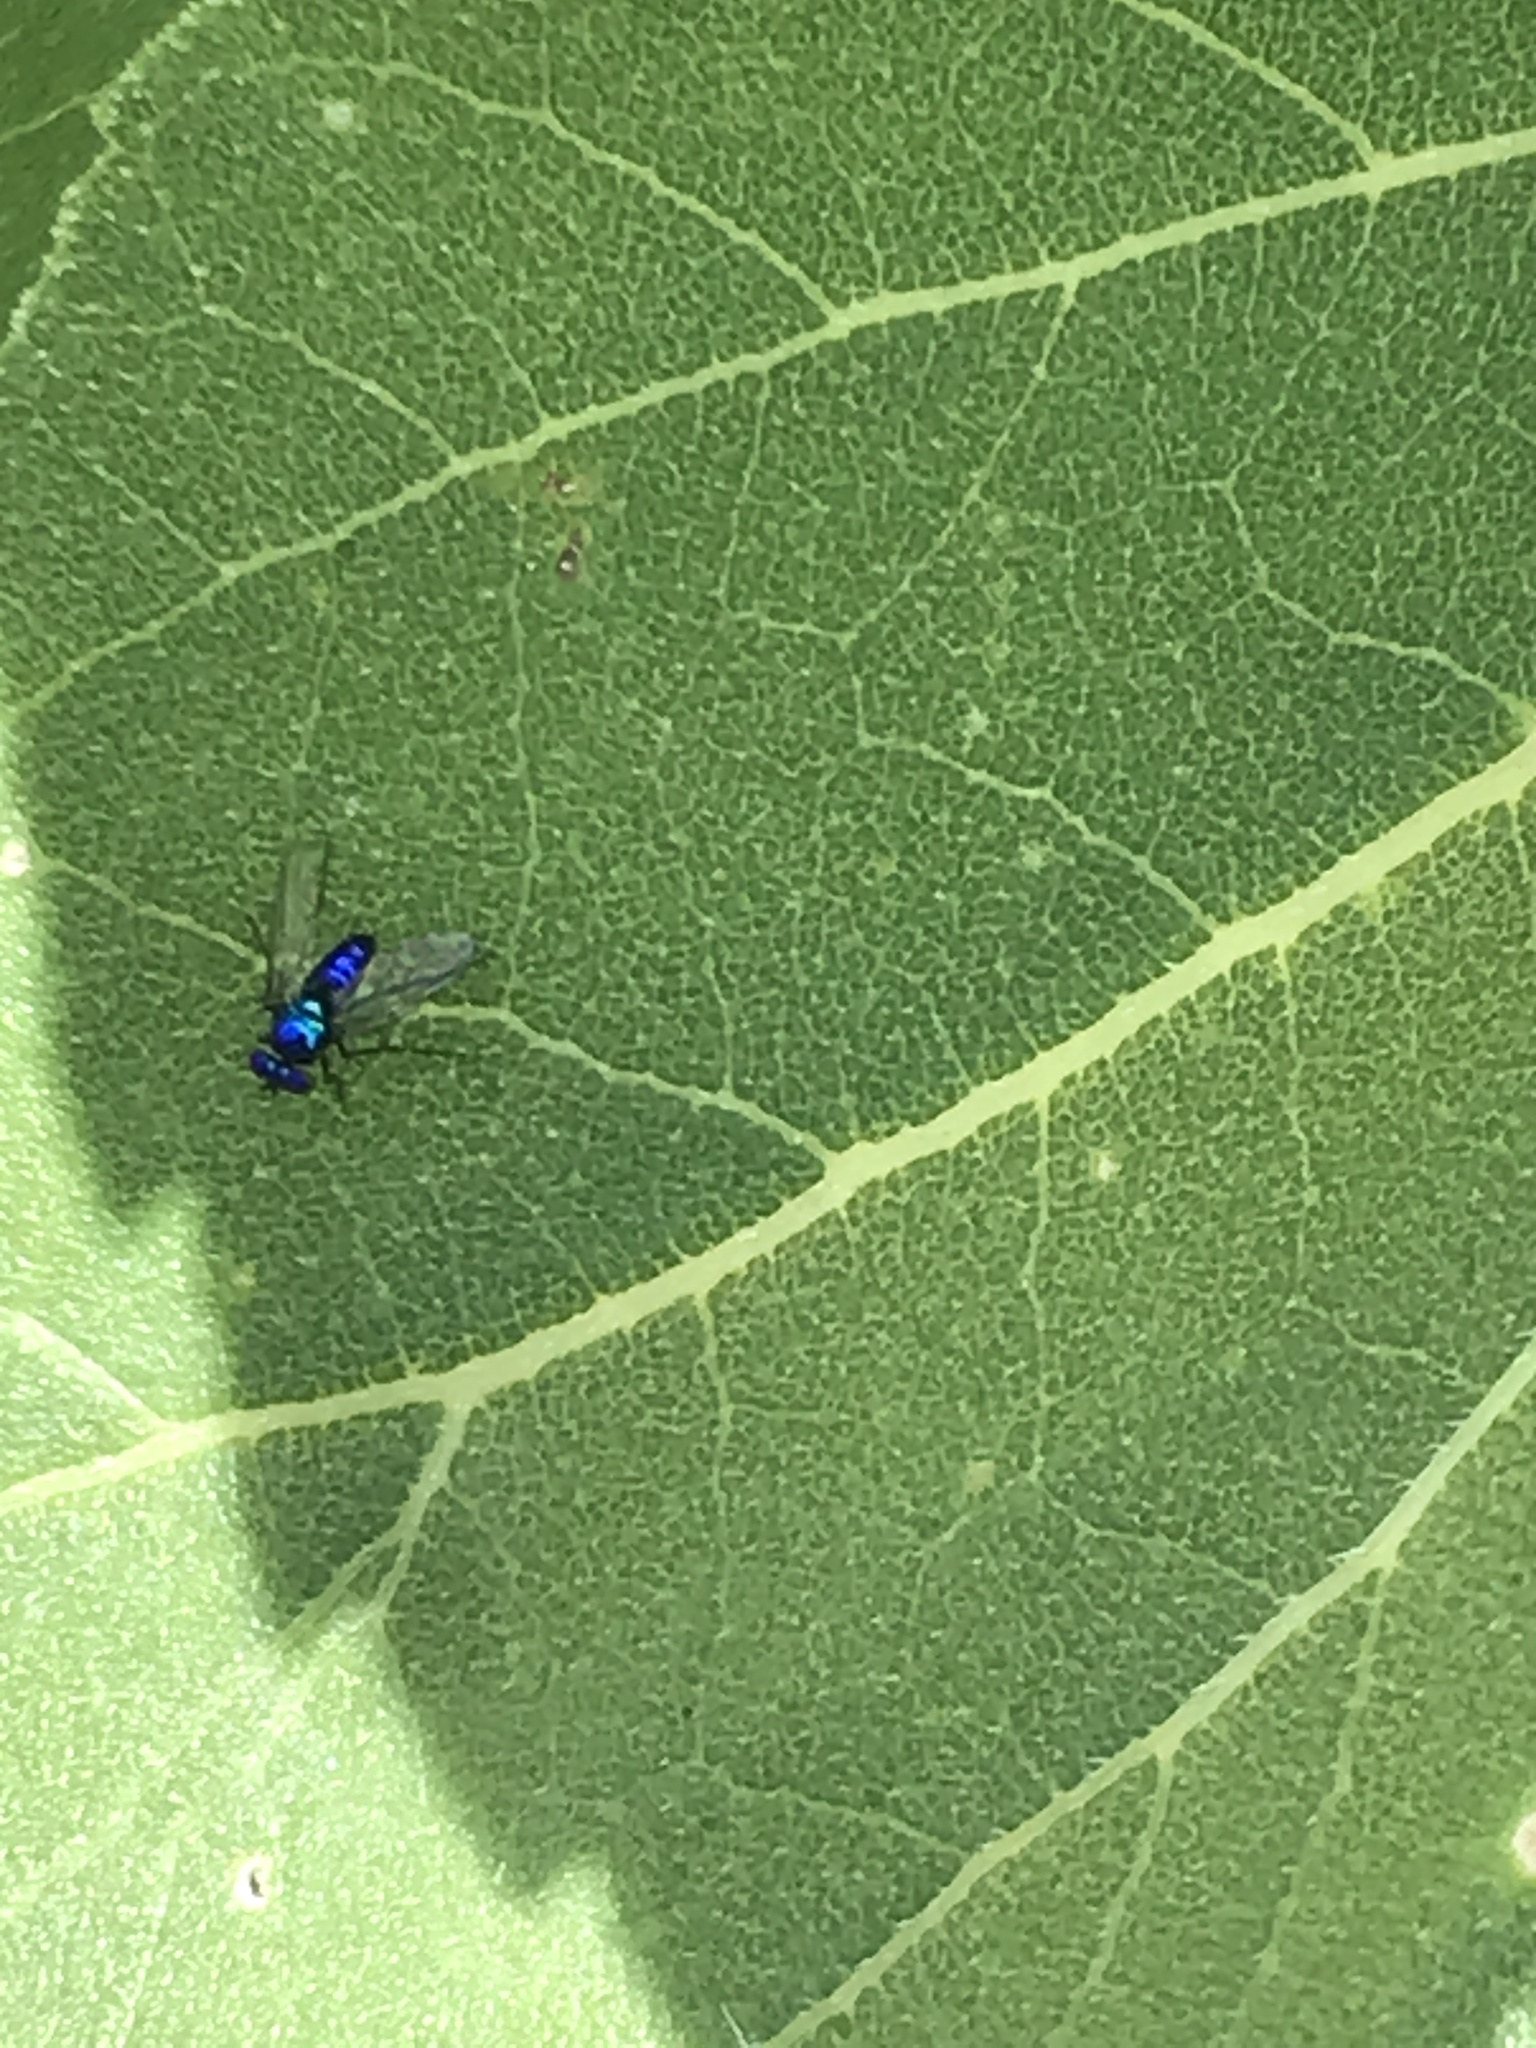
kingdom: Animalia
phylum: Arthropoda
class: Insecta
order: Diptera
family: Dolichopodidae
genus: Condylostylus
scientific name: Condylostylus mundus
